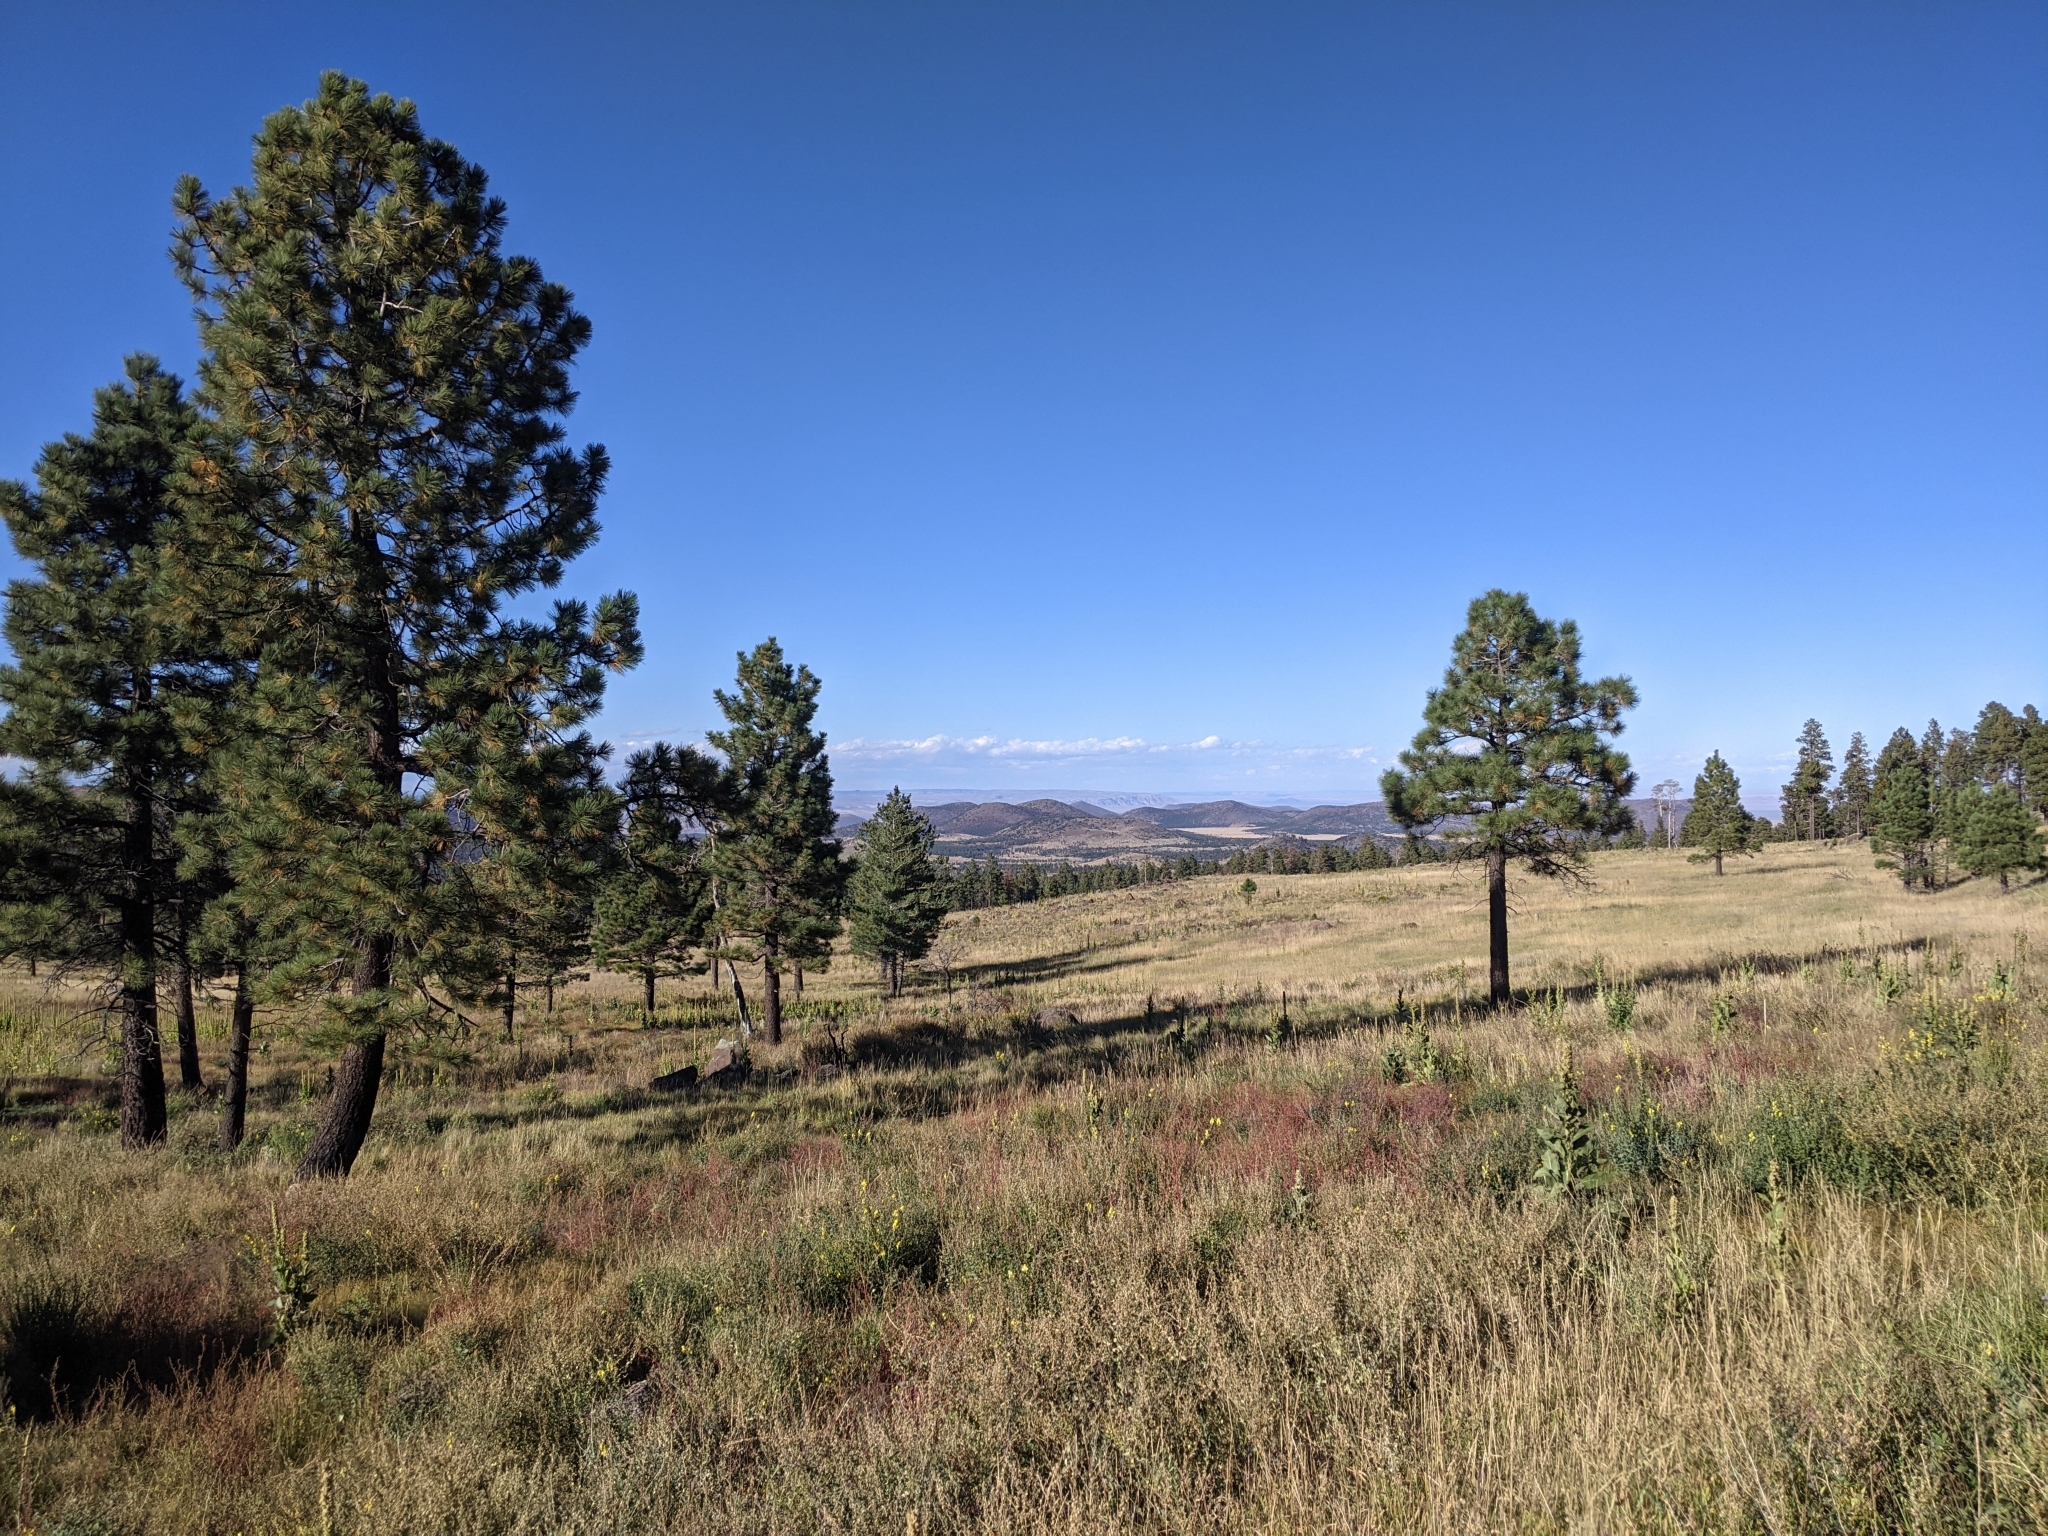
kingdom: Plantae
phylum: Tracheophyta
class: Pinopsida
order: Pinales
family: Pinaceae
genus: Pinus
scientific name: Pinus ponderosa
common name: Western yellow-pine
